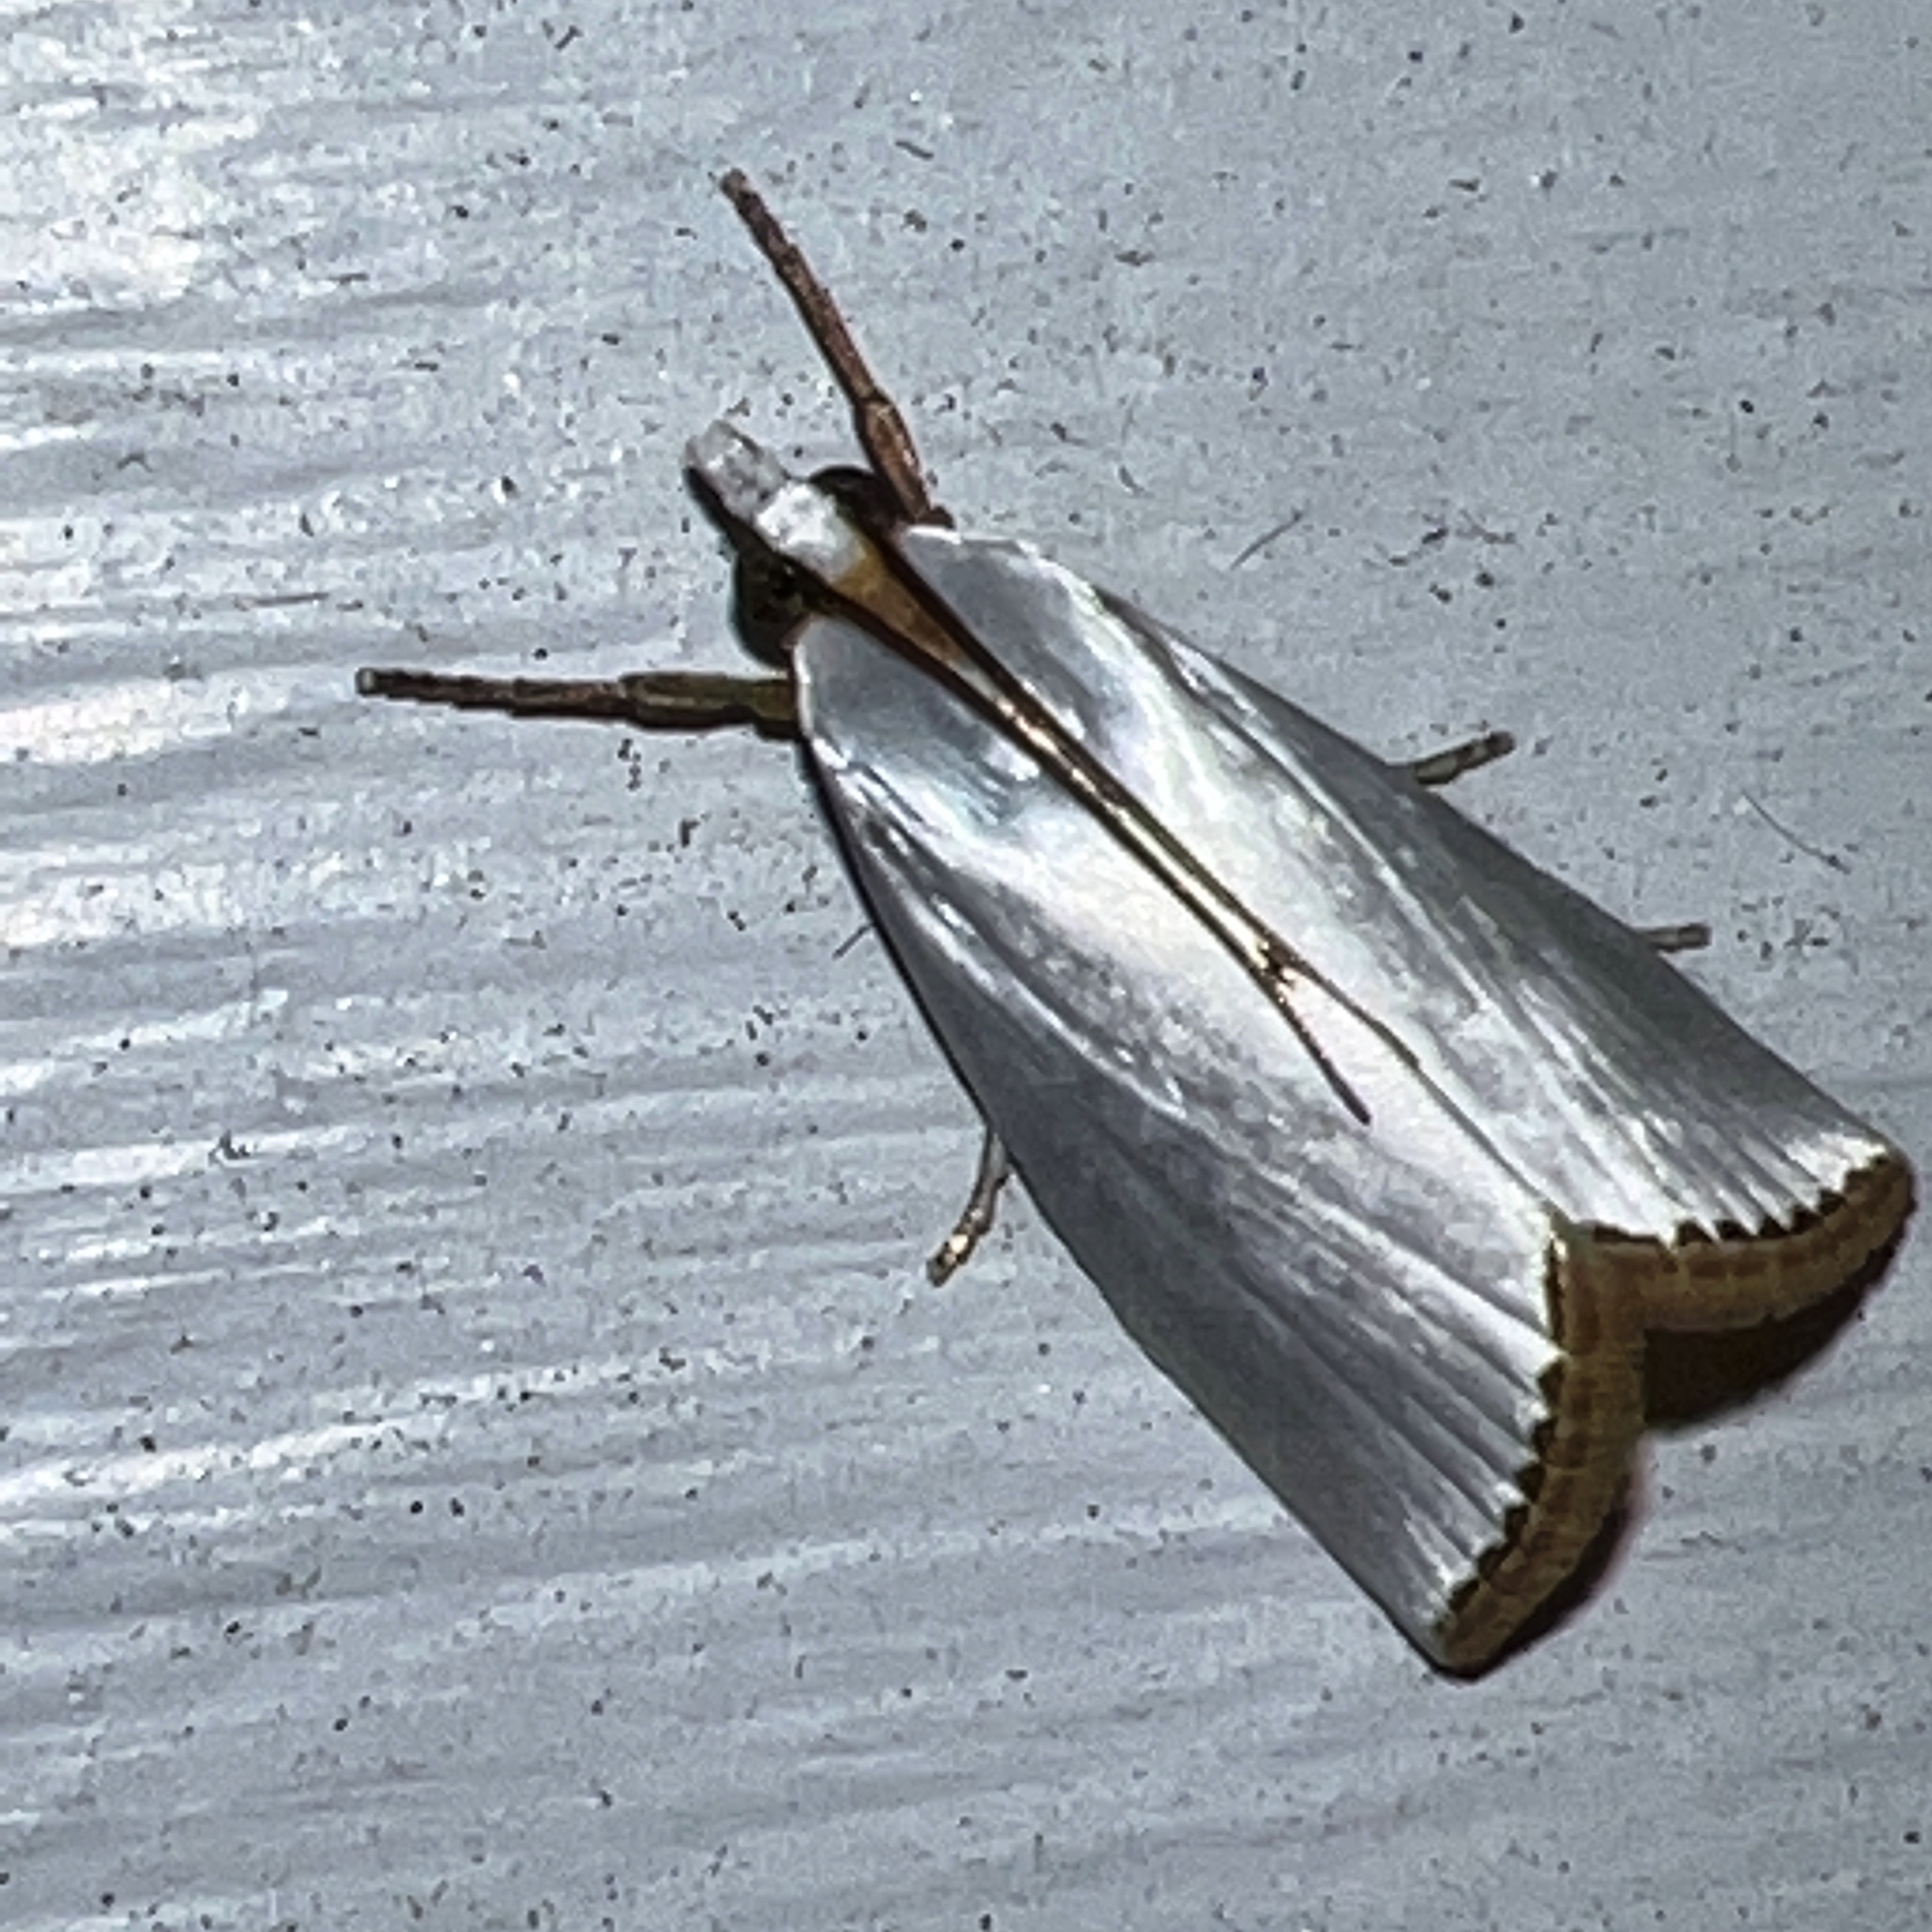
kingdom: Animalia
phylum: Arthropoda
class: Insecta
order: Lepidoptera
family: Crambidae
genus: Argyria
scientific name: Argyria nivalis
